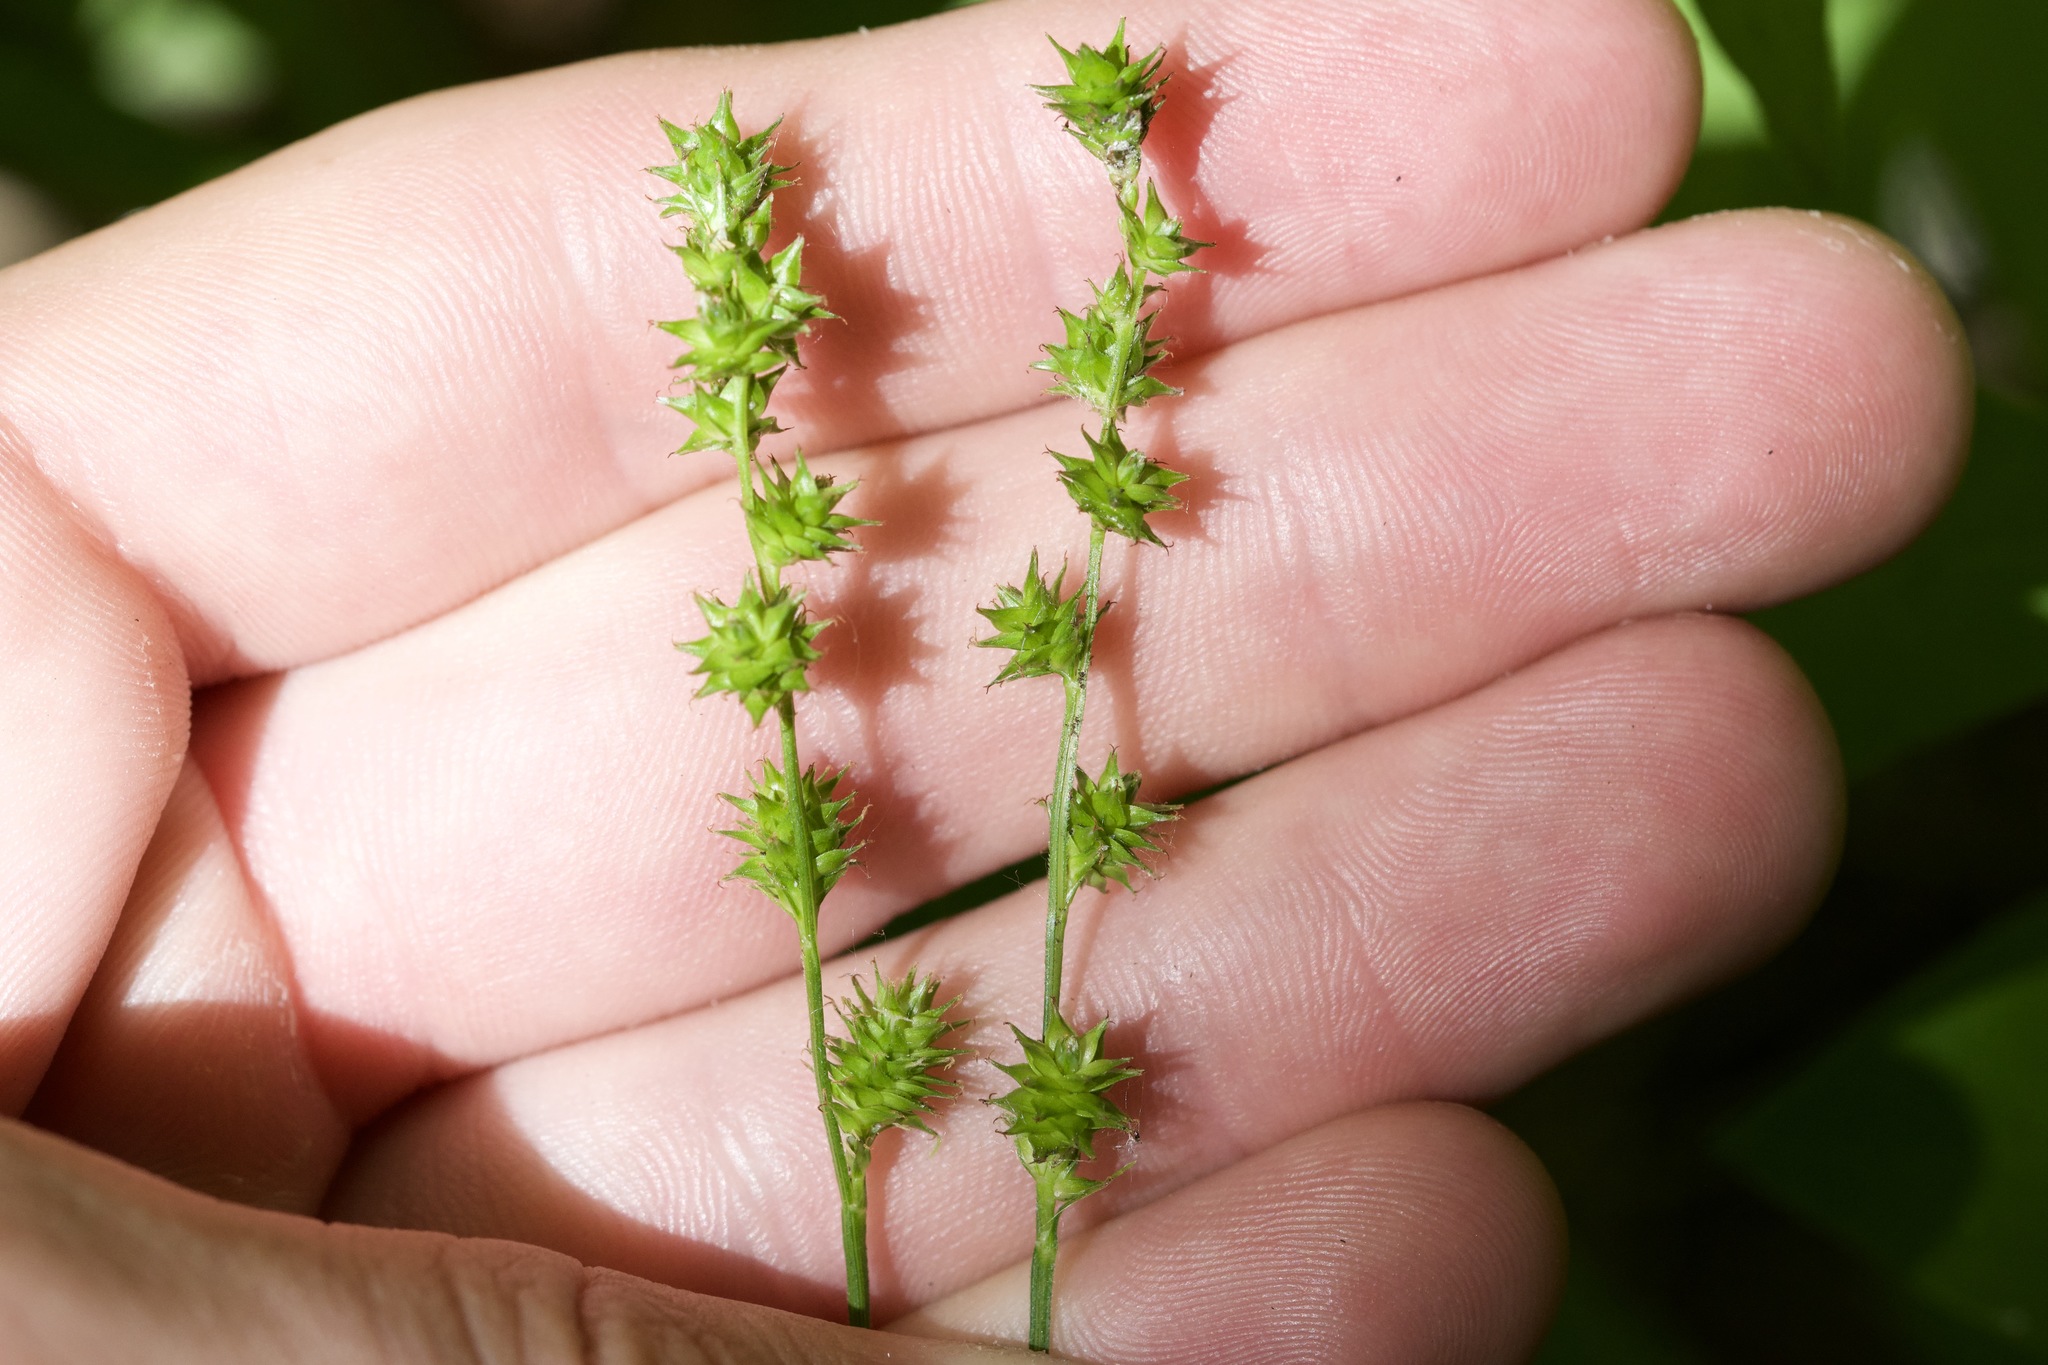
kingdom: Plantae
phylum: Tracheophyta
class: Liliopsida
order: Poales
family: Cyperaceae
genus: Carex
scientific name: Carex sparganioides
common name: Burreed sedge
